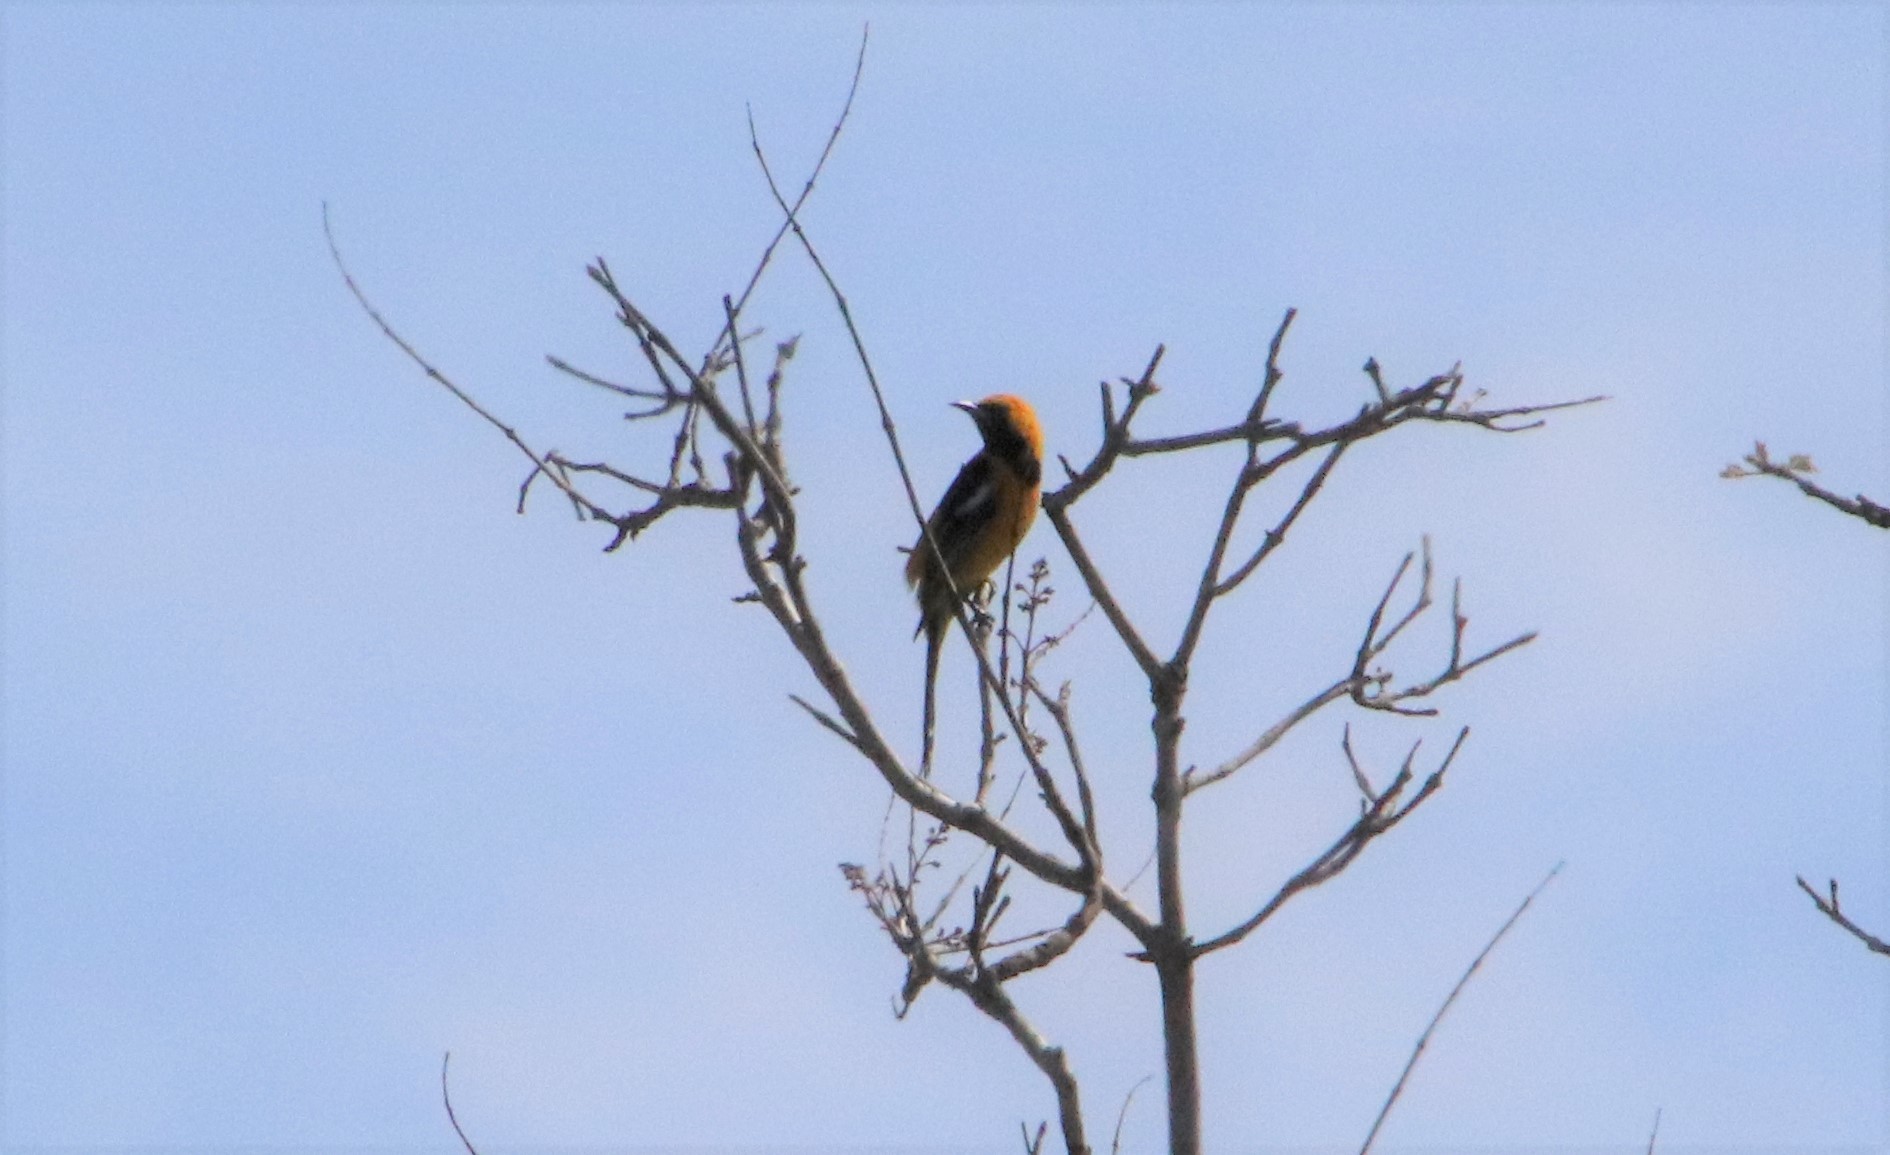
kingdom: Animalia
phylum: Chordata
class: Aves
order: Passeriformes
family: Icteridae
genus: Icterus
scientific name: Icterus cucullatus
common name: Hooded oriole
